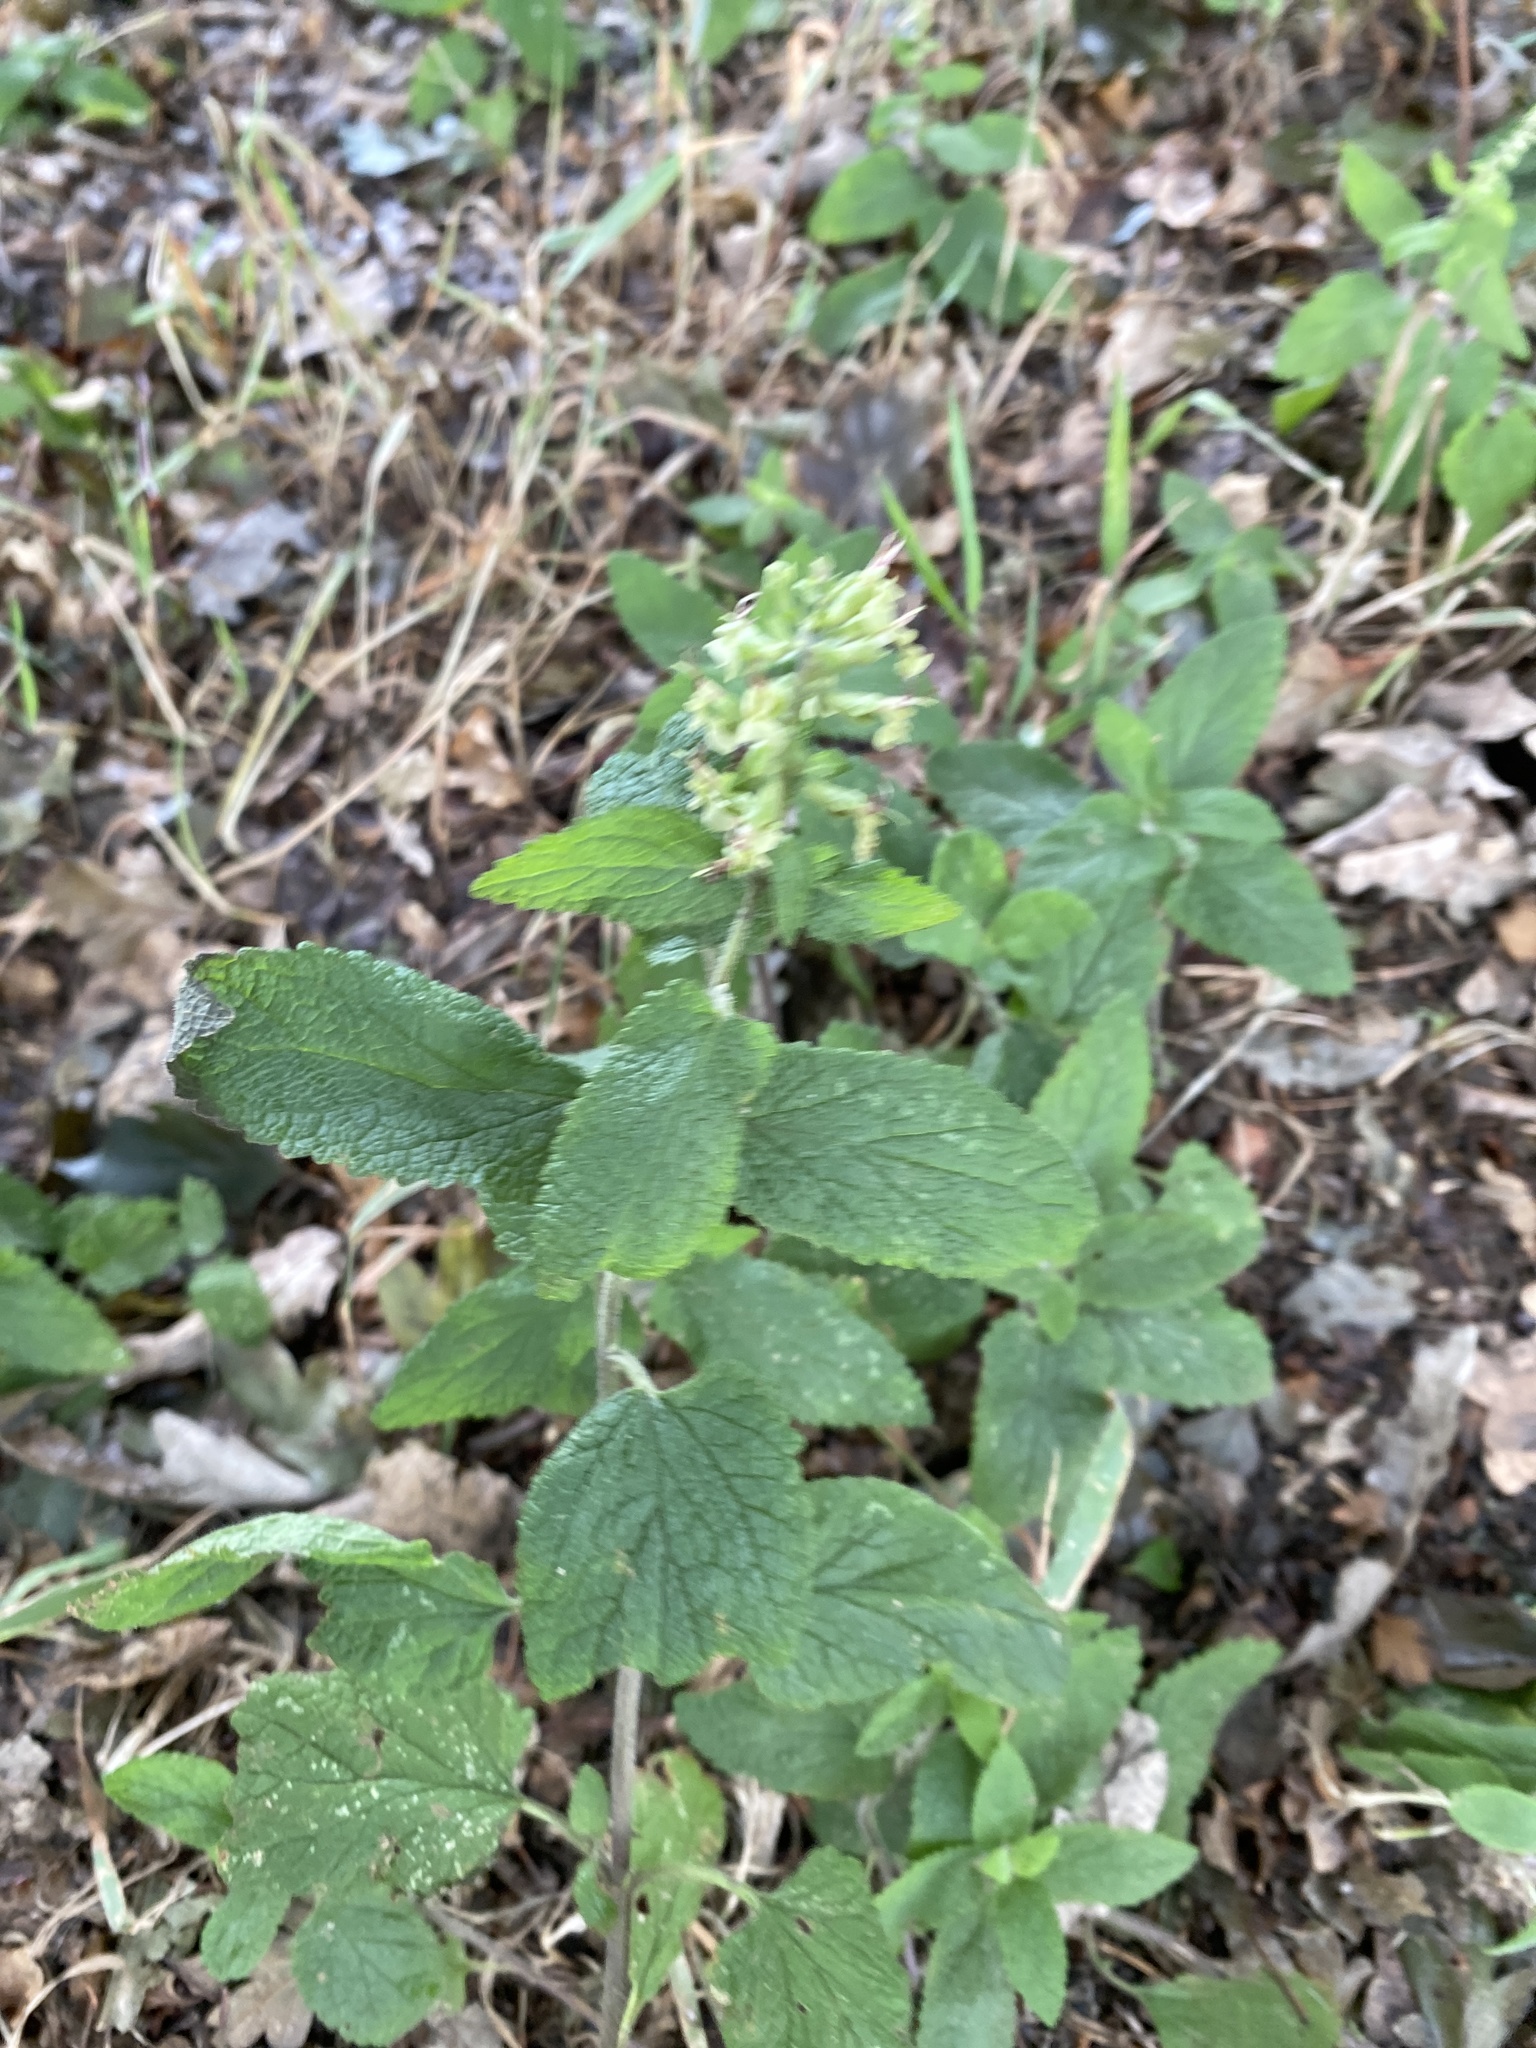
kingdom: Plantae
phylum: Tracheophyta
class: Magnoliopsida
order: Lamiales
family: Lamiaceae
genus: Teucrium
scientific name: Teucrium scorodonia
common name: Woodland germander
